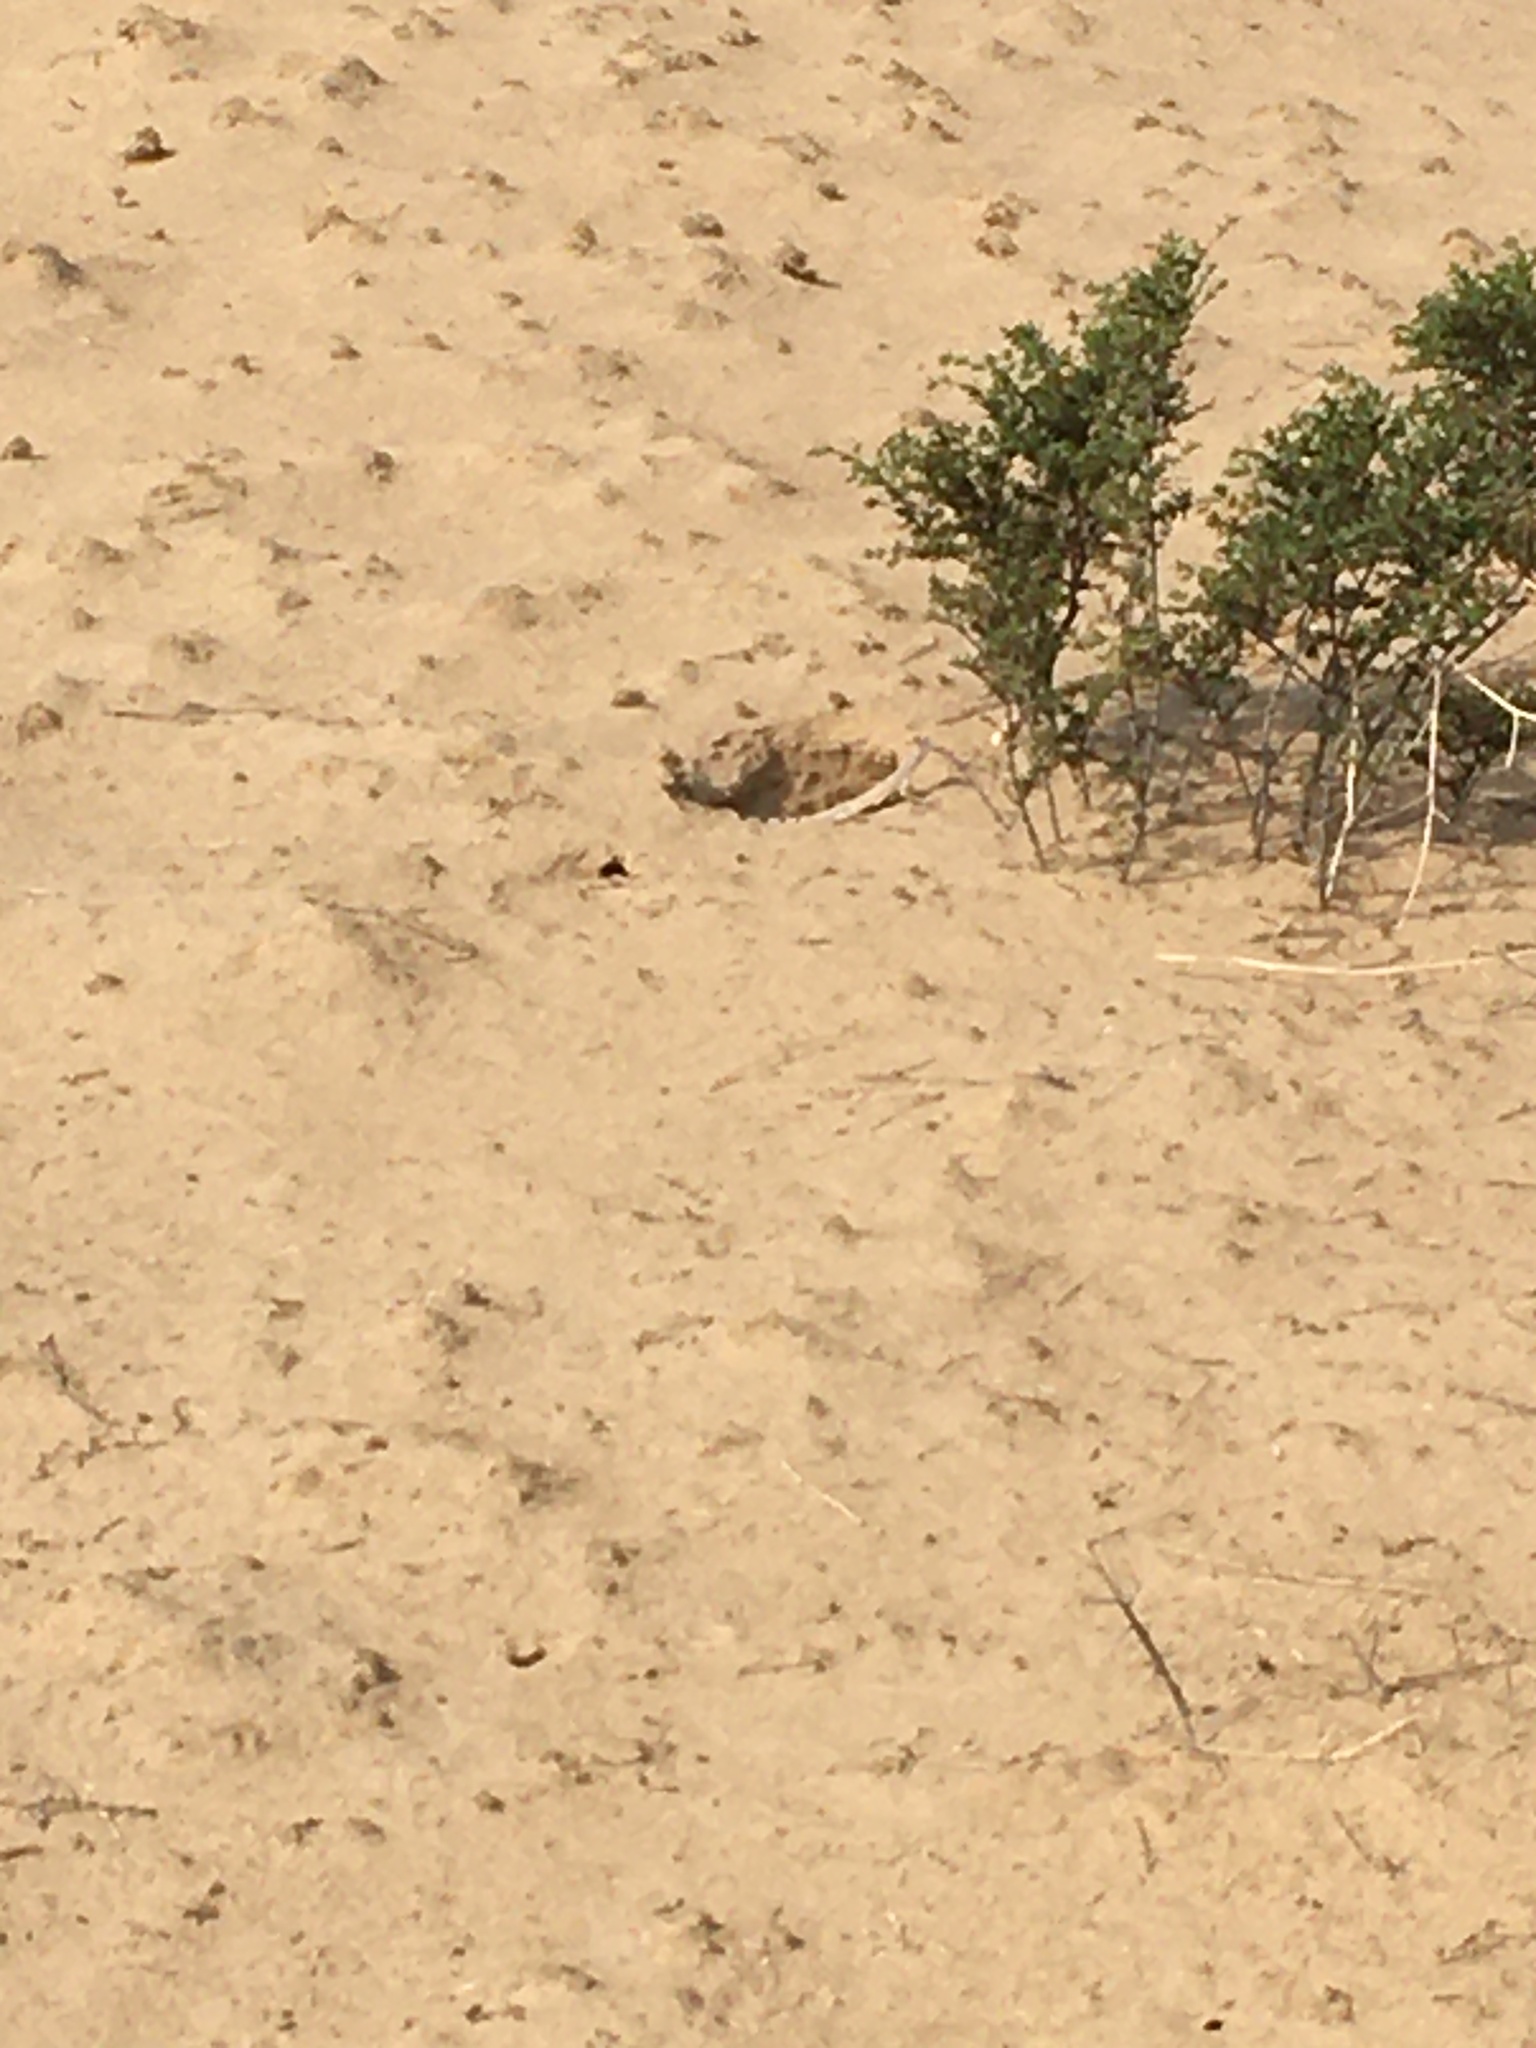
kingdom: Animalia
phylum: Chordata
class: Squamata
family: Phrynosomatidae
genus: Callisaurus
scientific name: Callisaurus draconoides
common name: Zebra-tailed lizard
